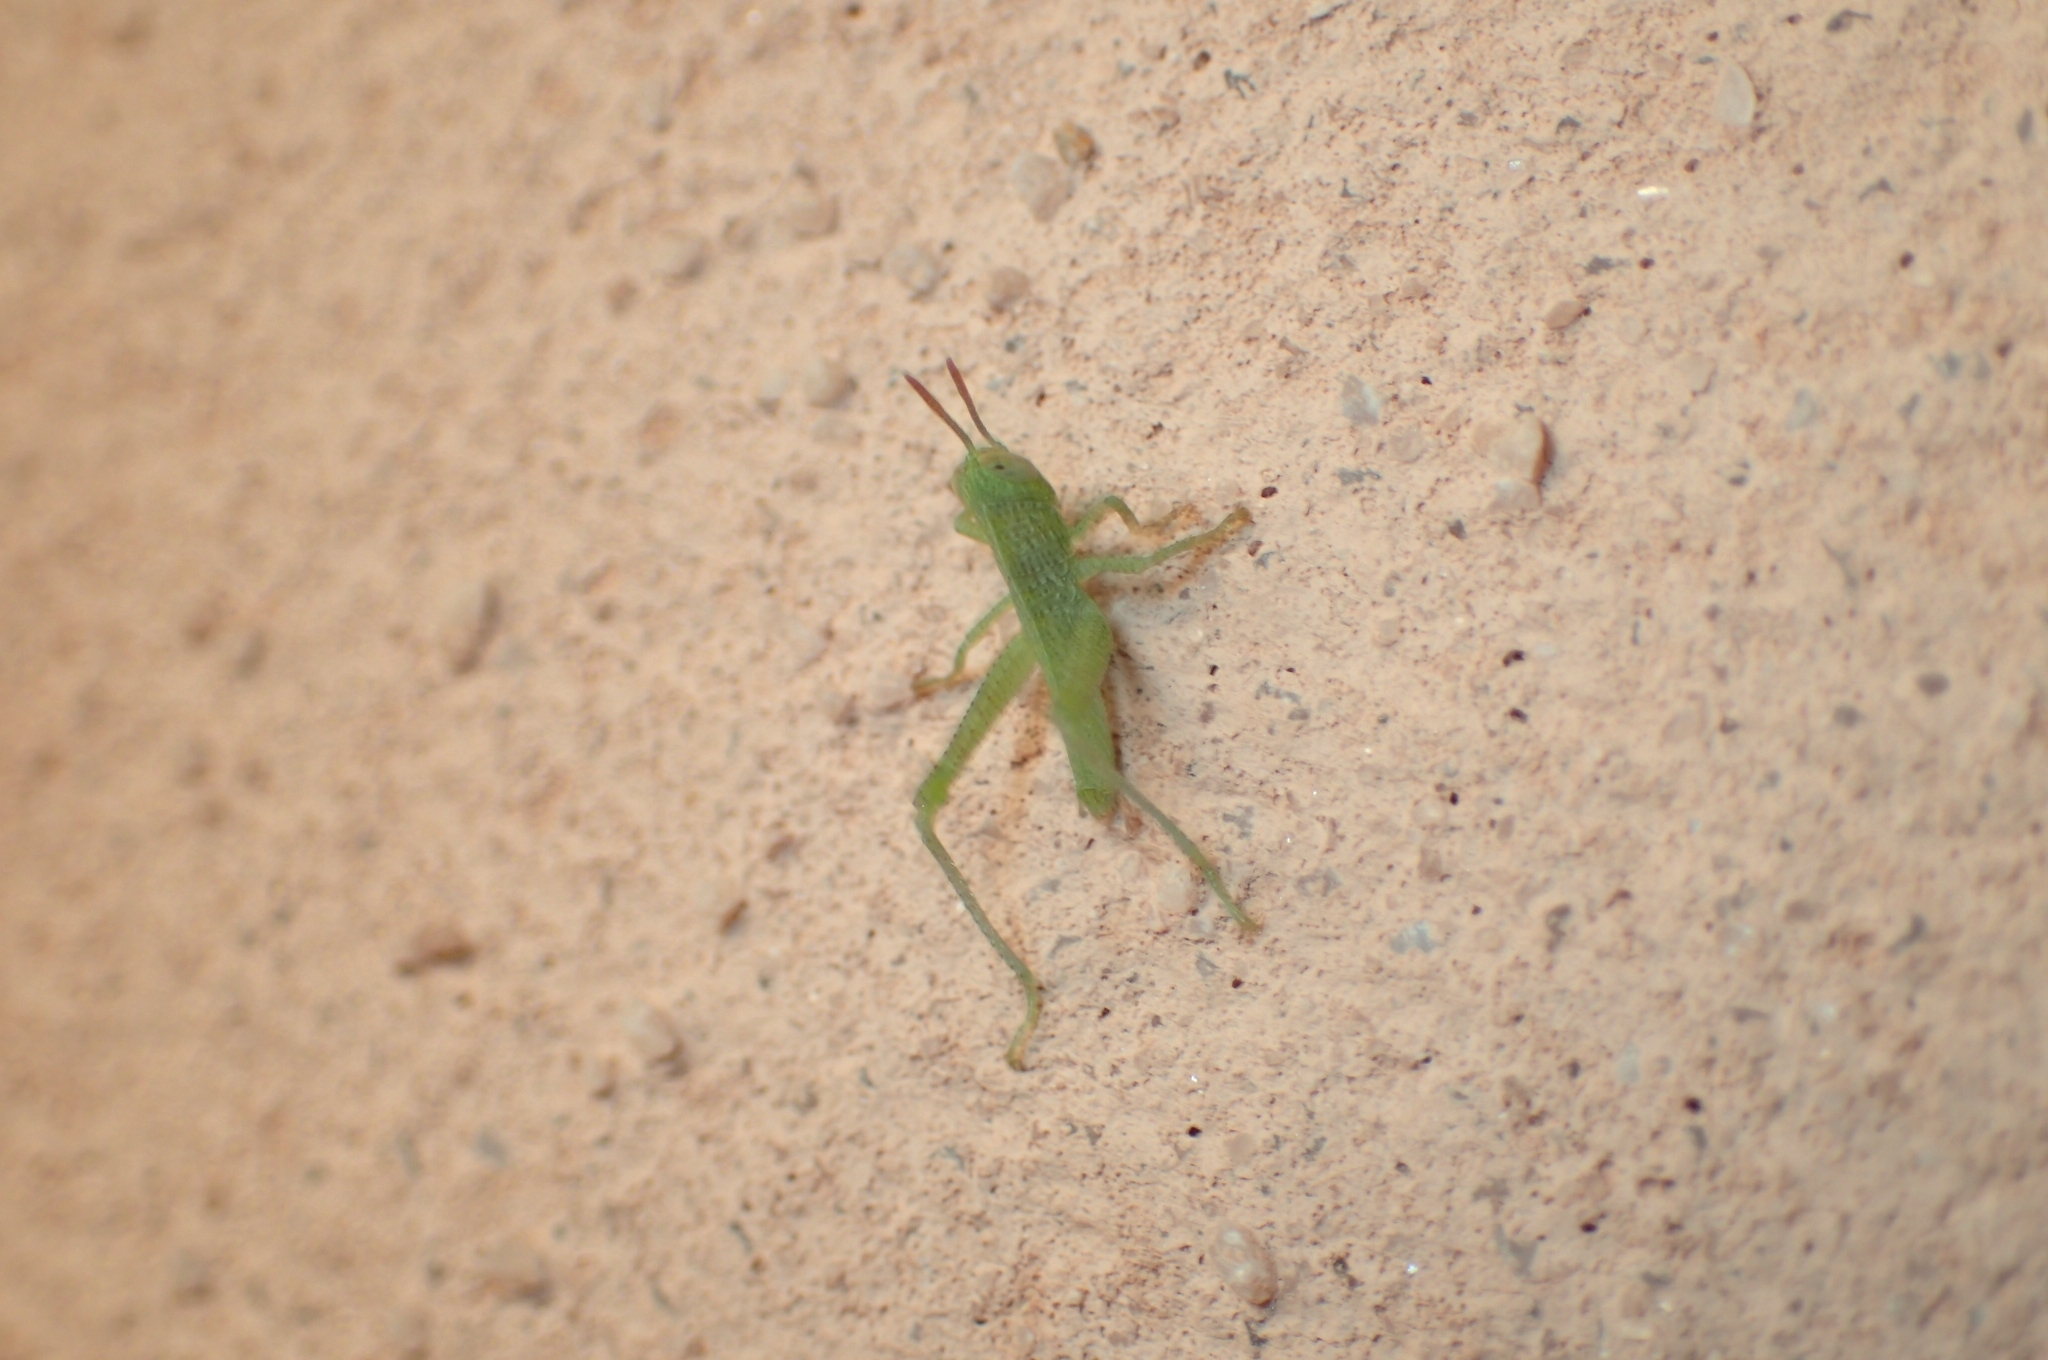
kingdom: Animalia
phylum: Arthropoda
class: Insecta
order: Orthoptera
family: Acrididae
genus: Anacridium
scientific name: Anacridium aegyptium
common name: Egyptian grasshopper
